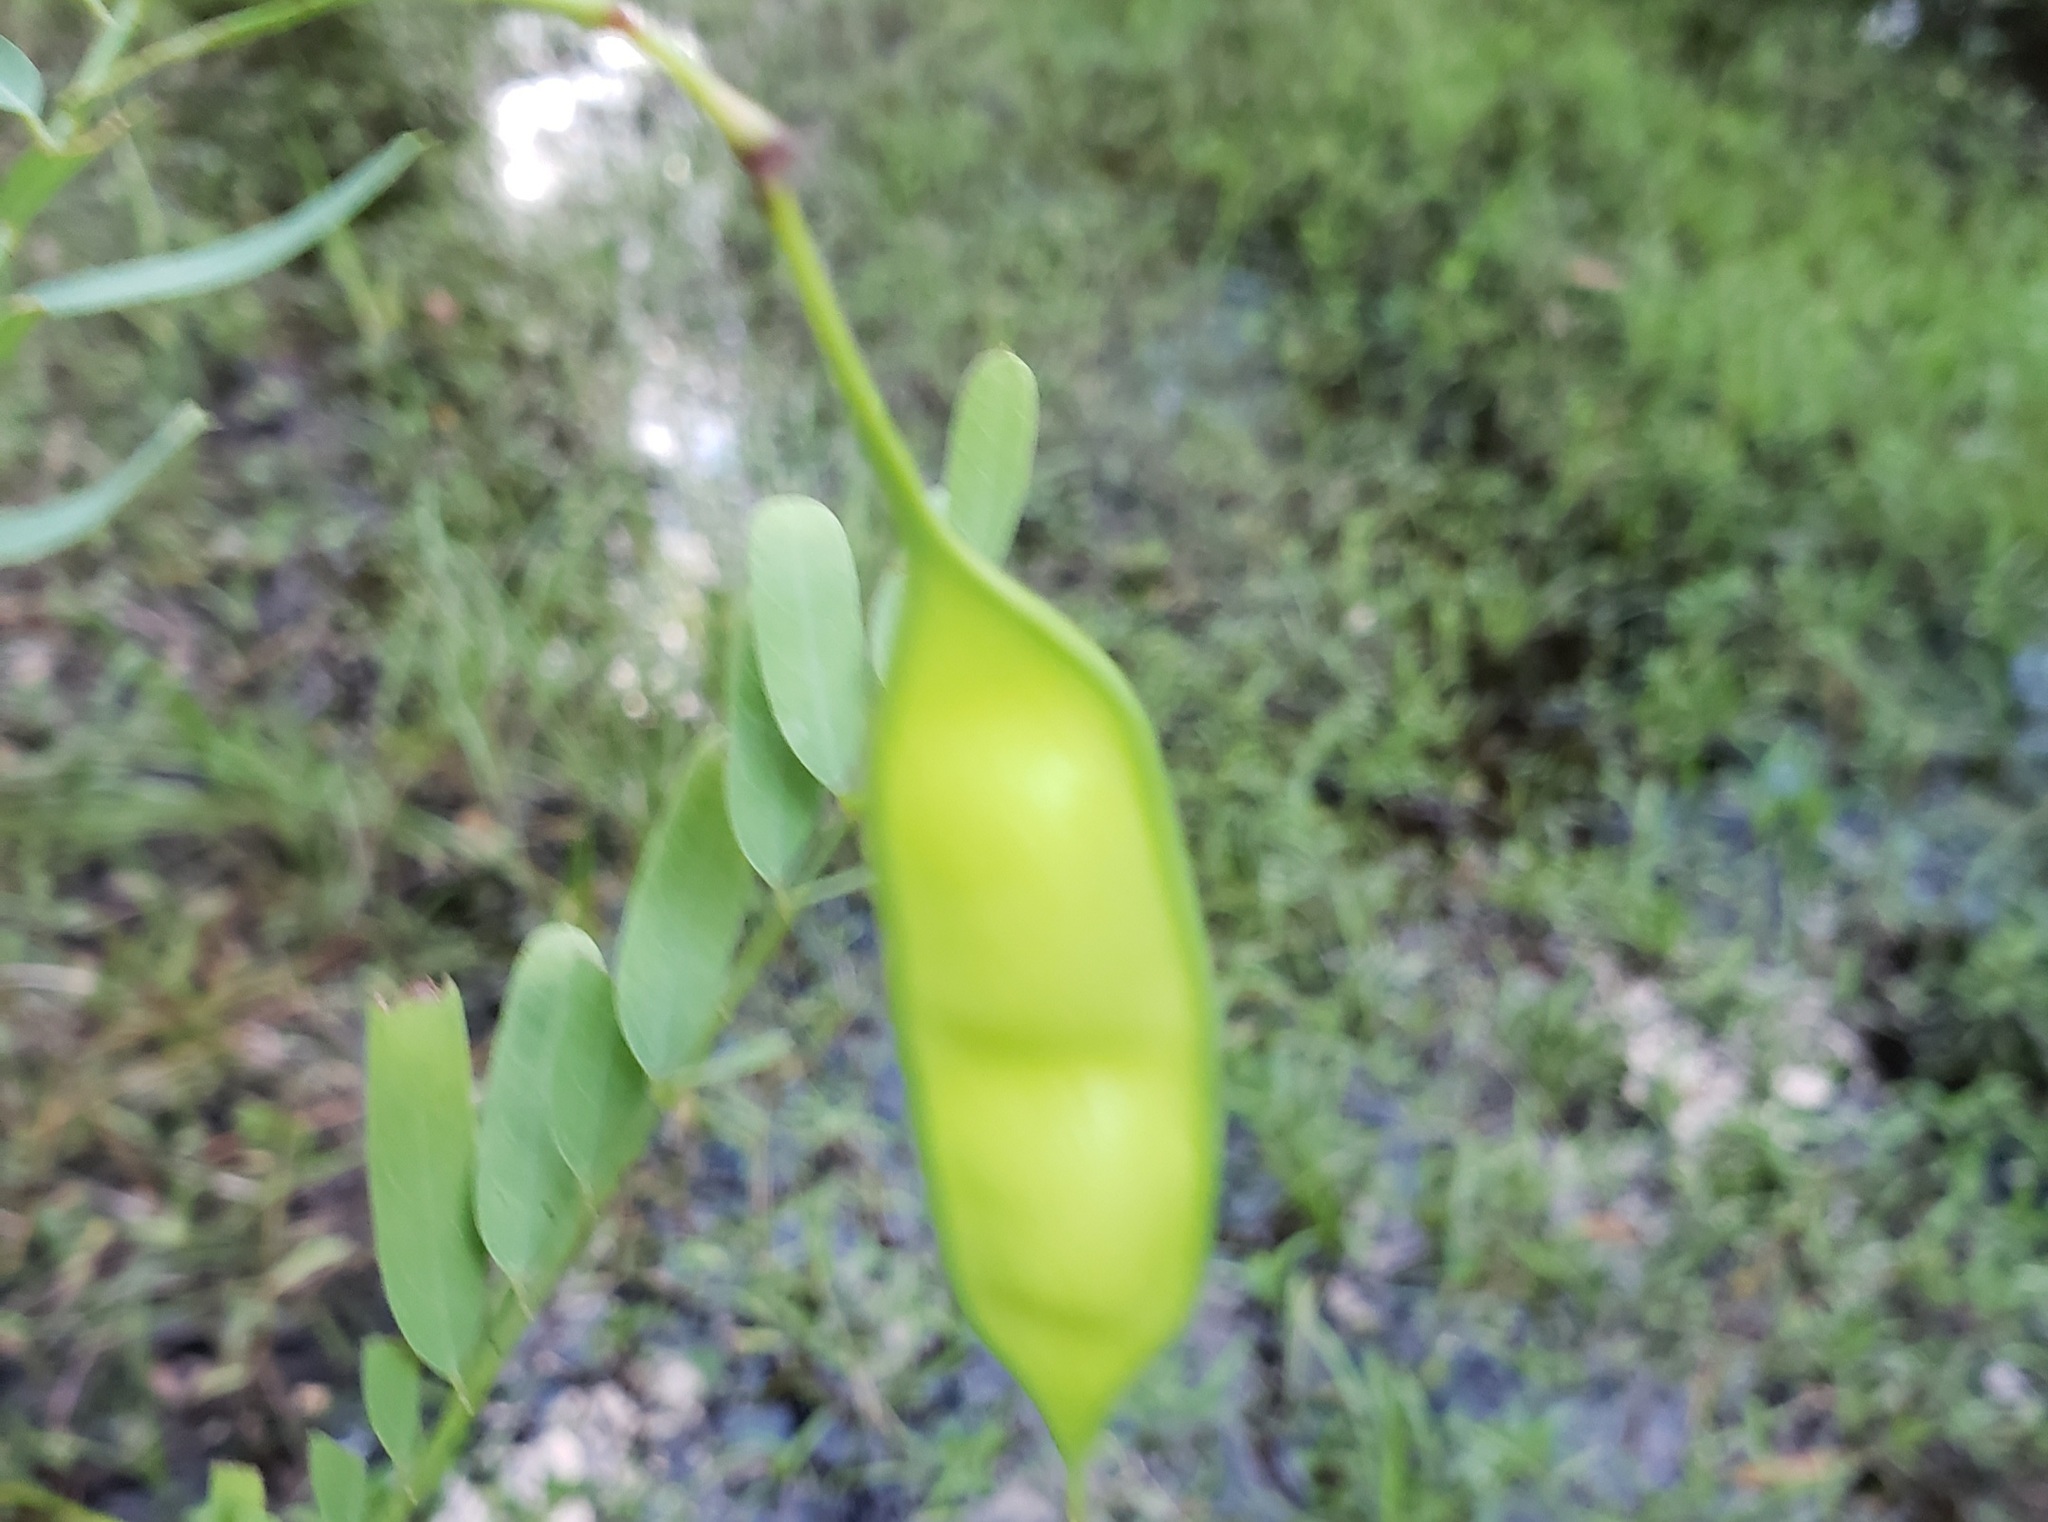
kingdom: Plantae
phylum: Tracheophyta
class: Magnoliopsida
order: Fabales
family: Fabaceae
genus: Sesbania
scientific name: Sesbania vesicaria
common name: Bagpod
